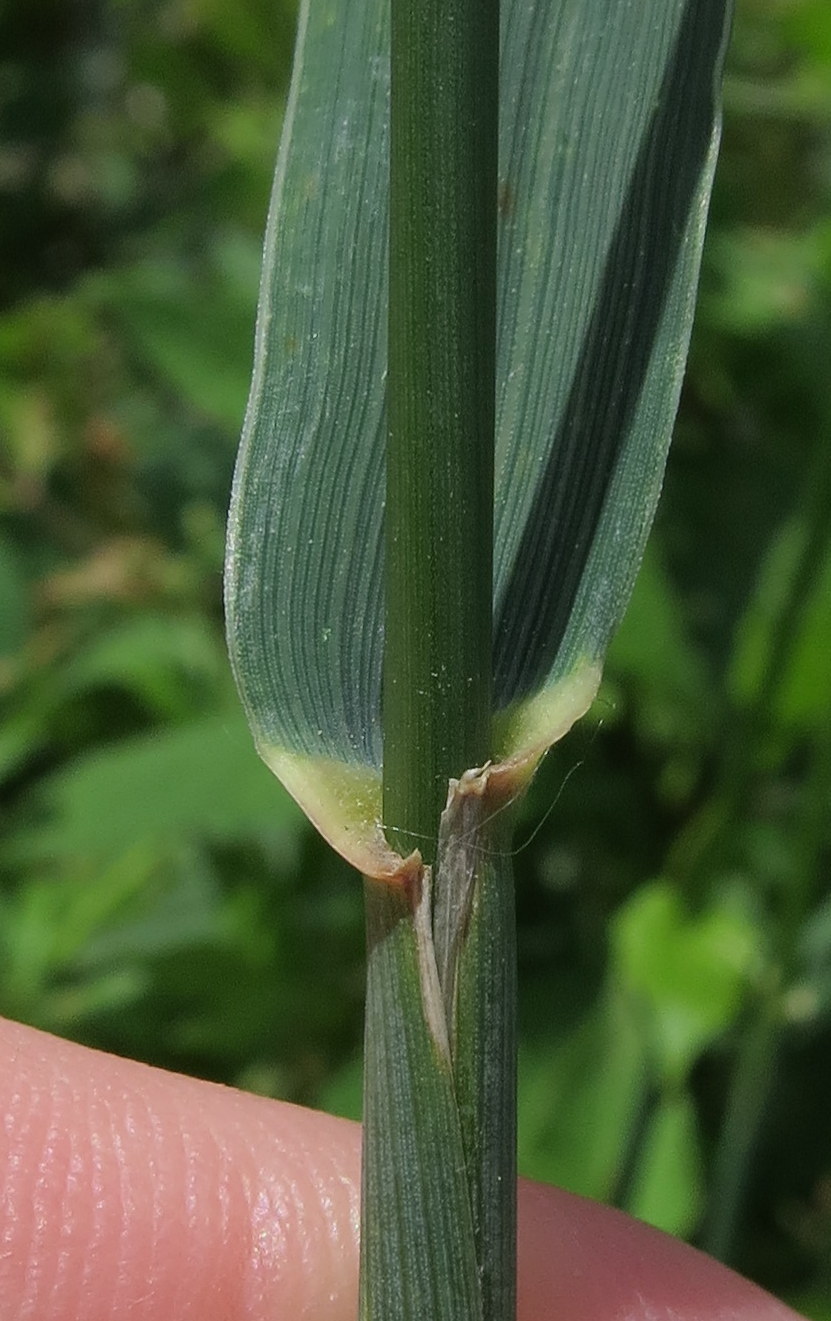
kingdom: Plantae
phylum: Tracheophyta
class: Liliopsida
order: Poales
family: Poaceae
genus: Elymus
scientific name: Elymus repens
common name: Quackgrass
